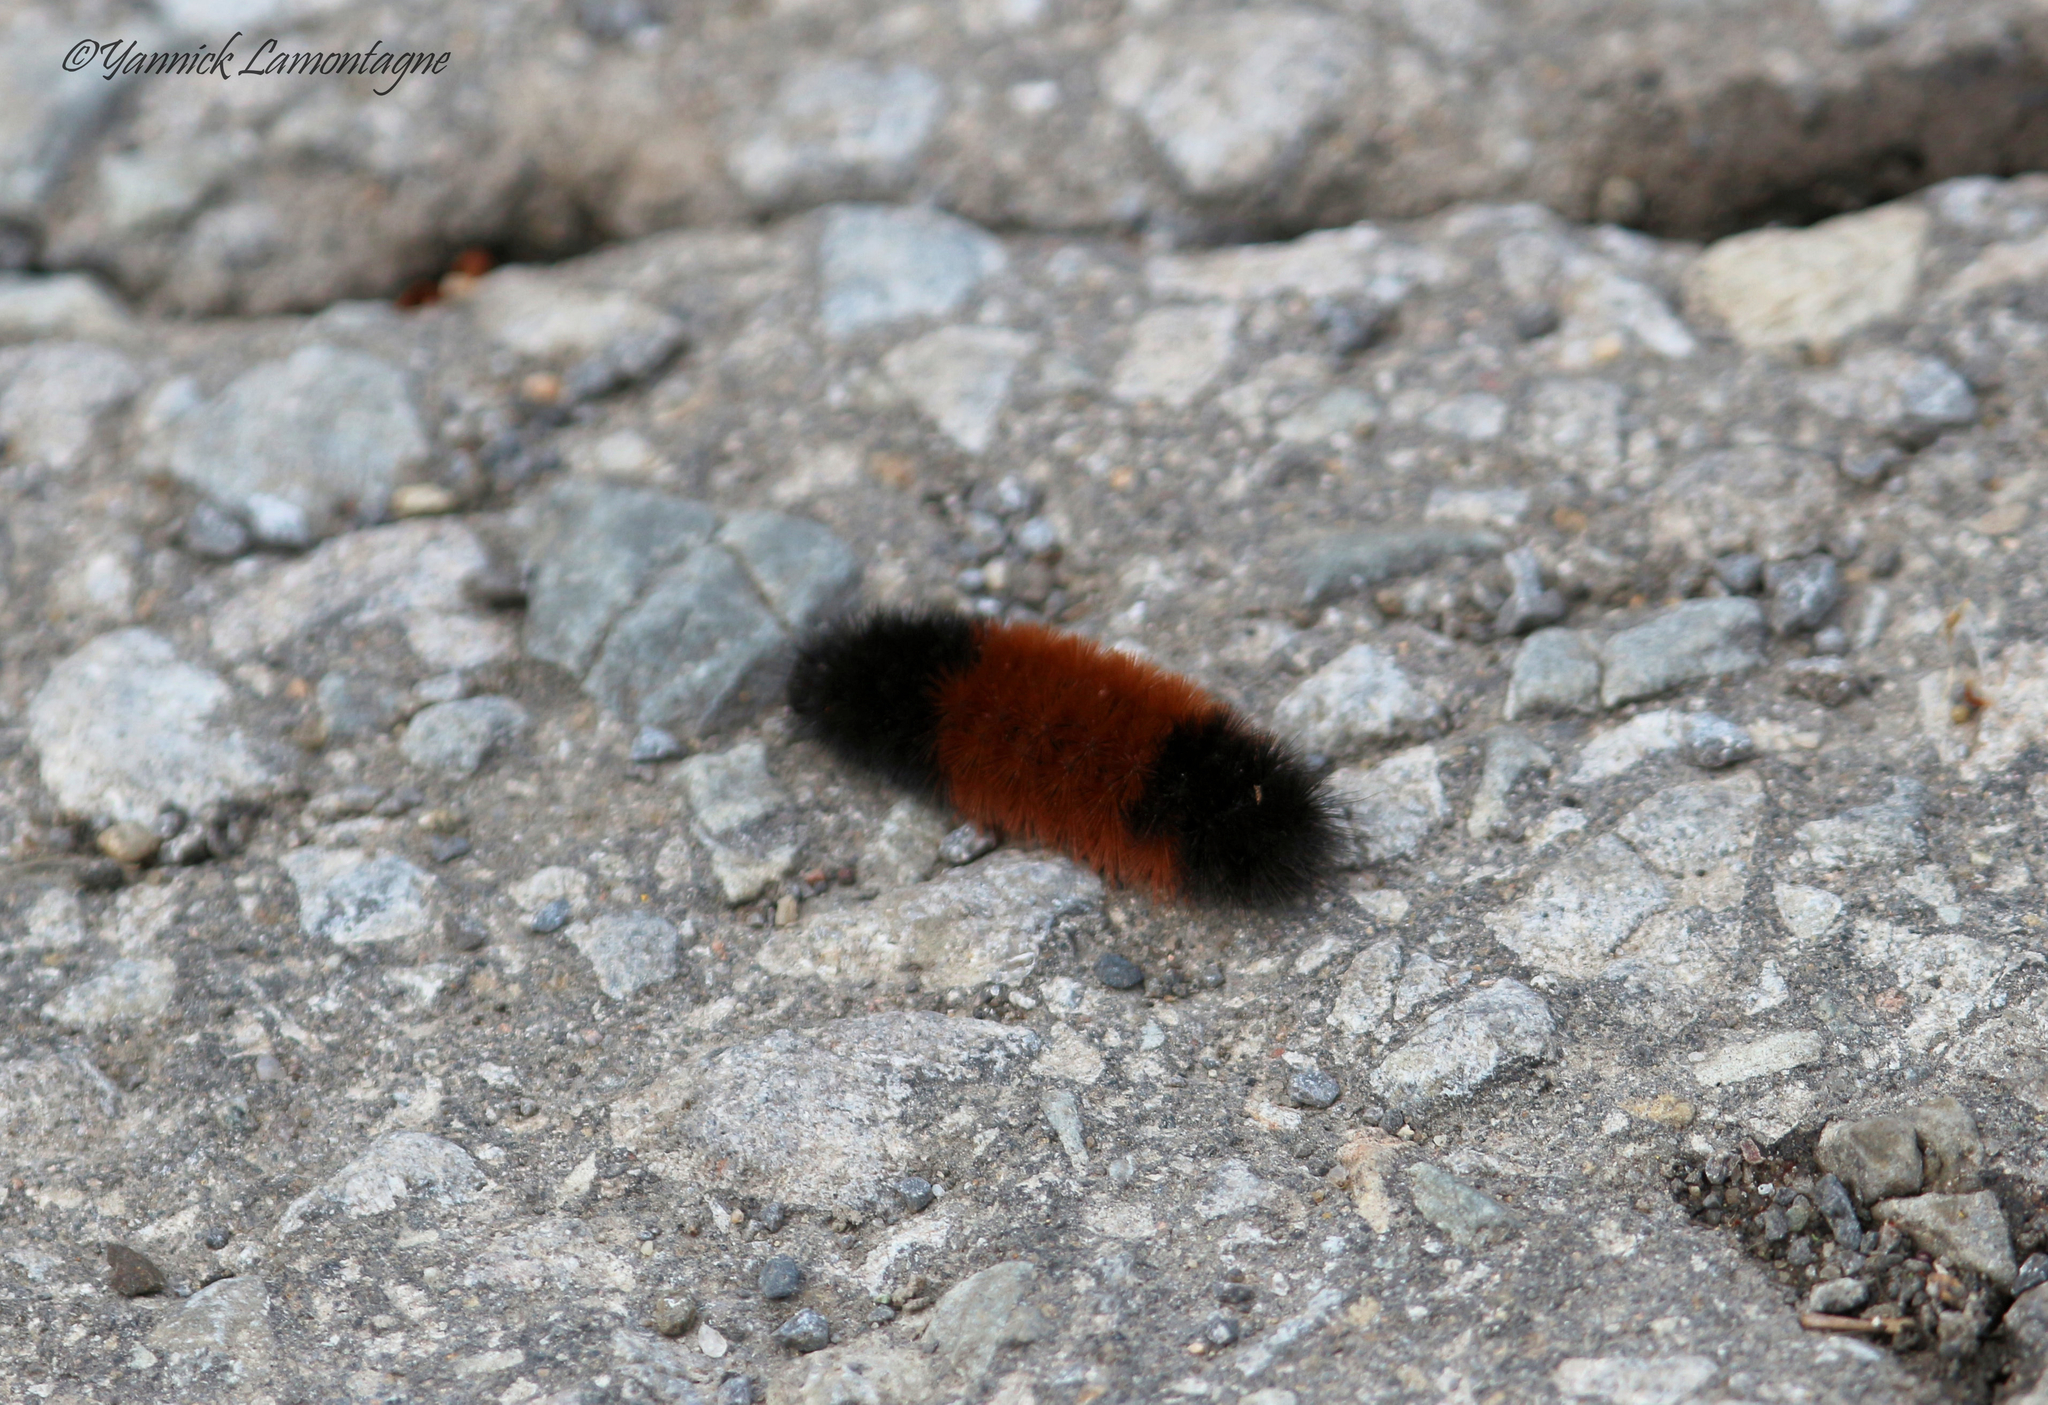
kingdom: Animalia
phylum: Arthropoda
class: Insecta
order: Lepidoptera
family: Erebidae
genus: Pyrrharctia
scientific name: Pyrrharctia isabella
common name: Isabella tiger moth
